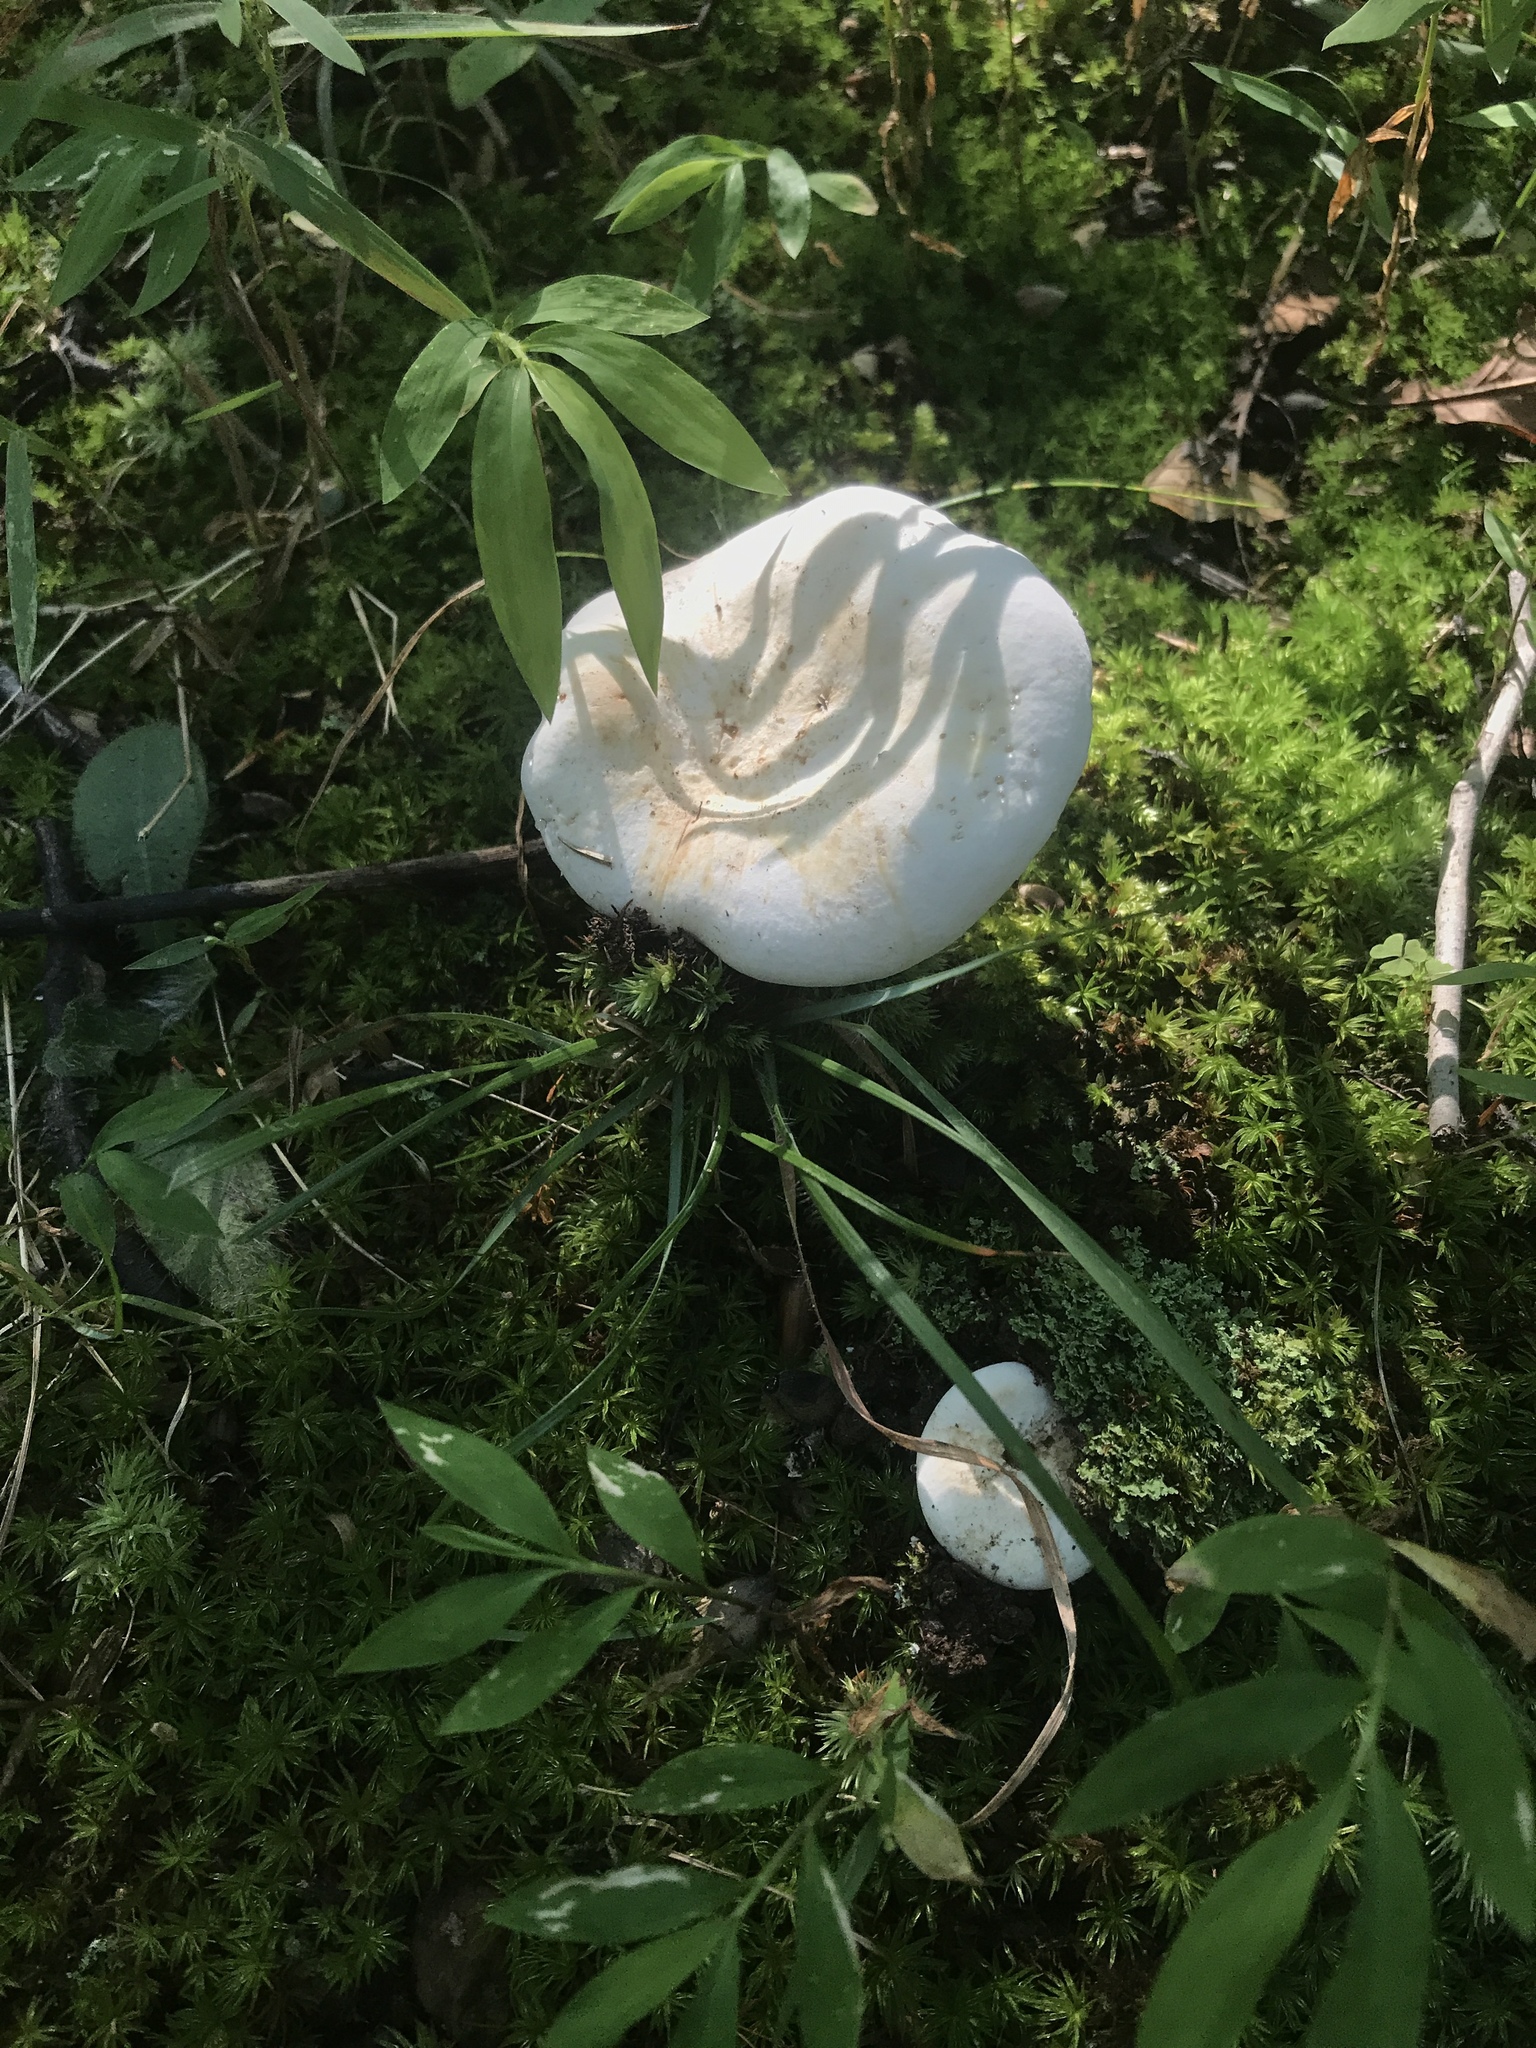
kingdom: Fungi
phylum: Basidiomycota
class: Agaricomycetes
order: Russulales
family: Russulaceae
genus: Lactifluus
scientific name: Lactifluus piperatus
